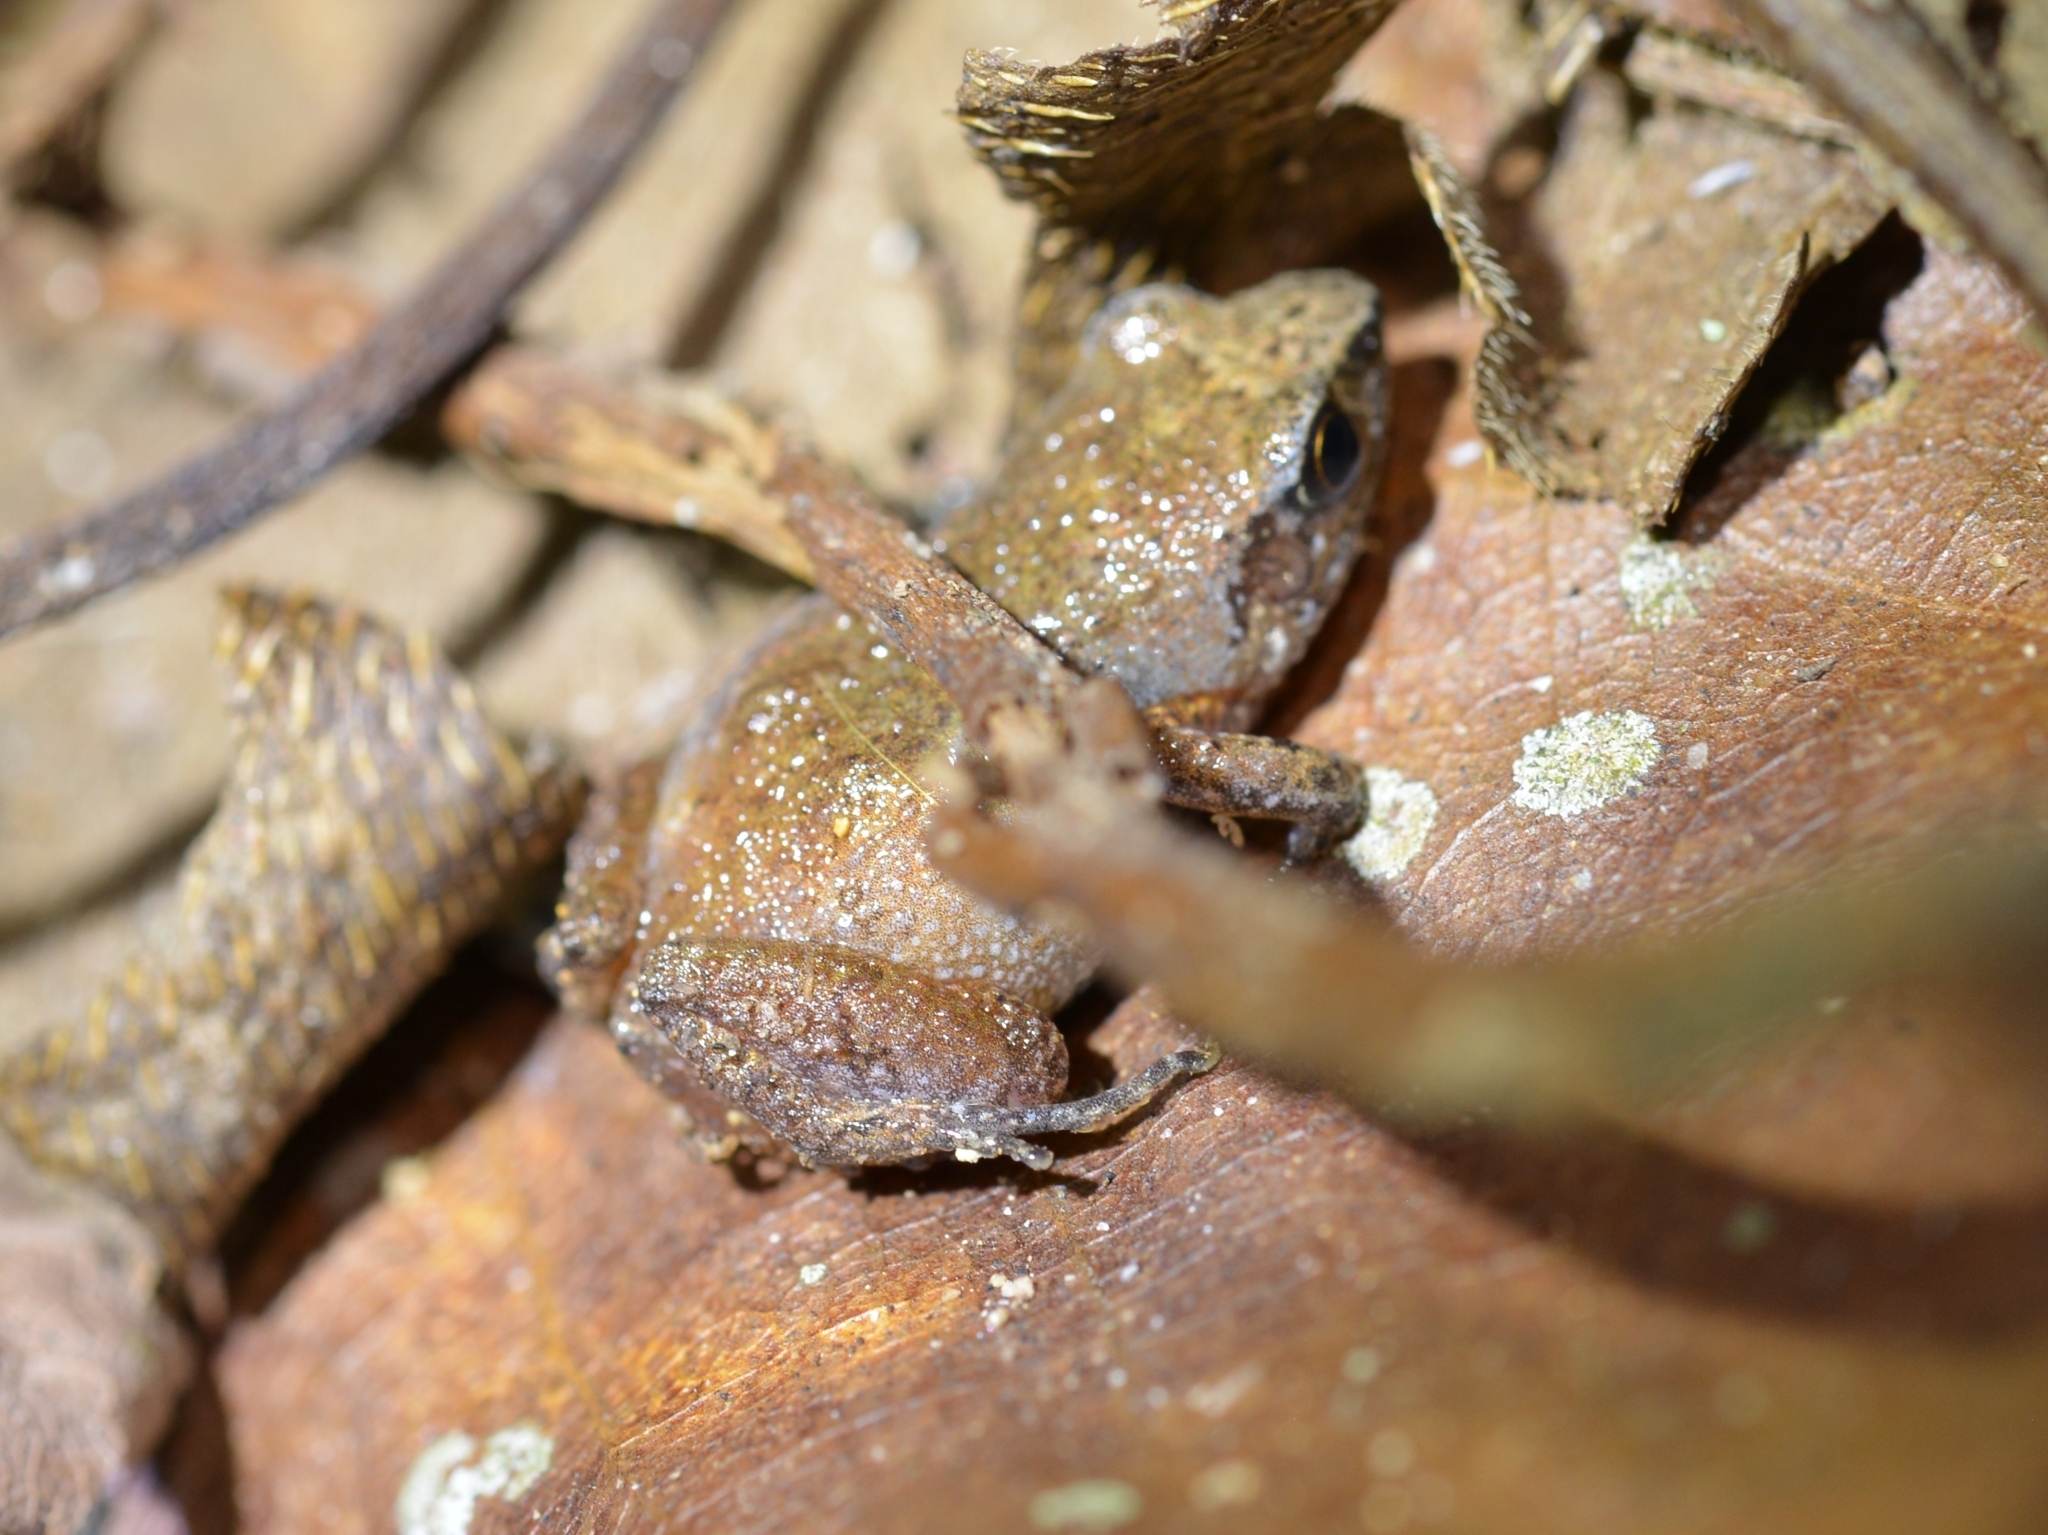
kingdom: Animalia
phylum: Chordata
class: Amphibia
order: Anura
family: Arthroleptidae
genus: Arthroleptis
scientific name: Arthroleptis xenodactyloides
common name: Chirinda screeching frog
